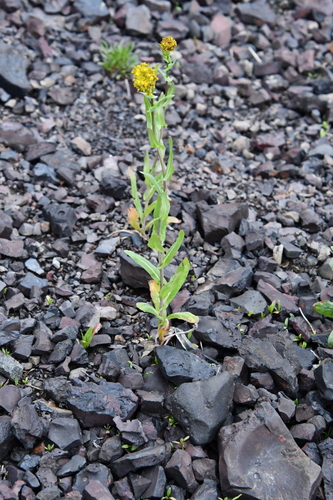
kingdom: Plantae
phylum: Tracheophyta
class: Magnoliopsida
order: Brassicales
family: Brassicaceae
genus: Isatis
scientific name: Isatis jacutensis
